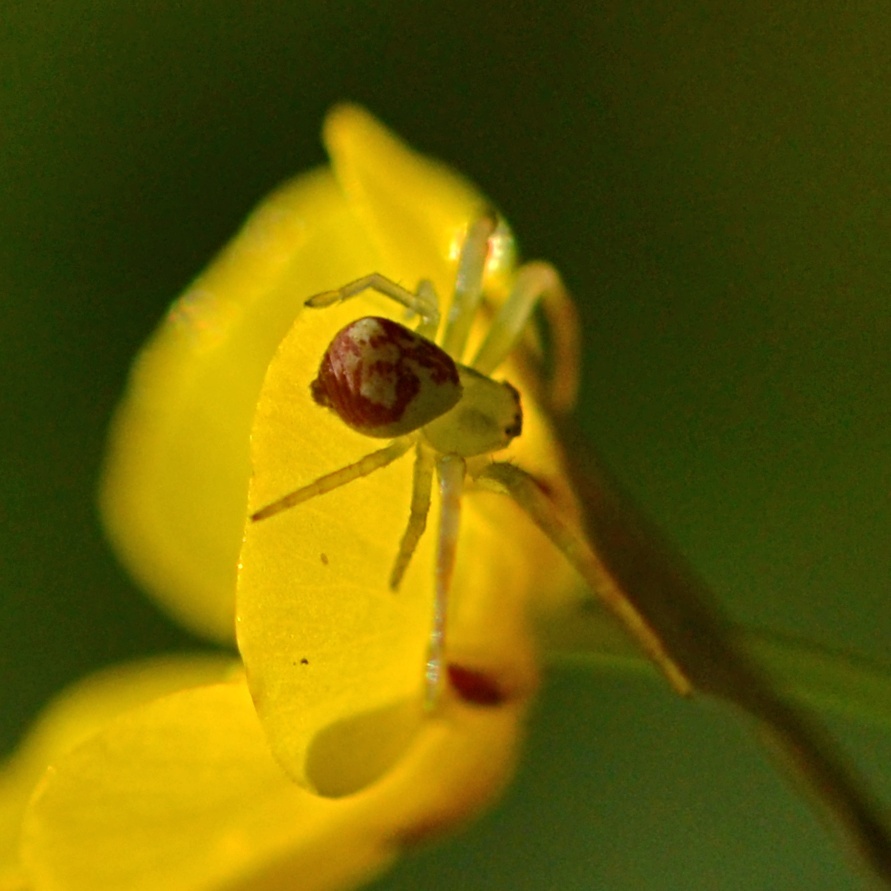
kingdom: Animalia
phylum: Arthropoda
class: Arachnida
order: Araneae
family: Thomisidae
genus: Ebrechtella
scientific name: Ebrechtella tricuspidata
